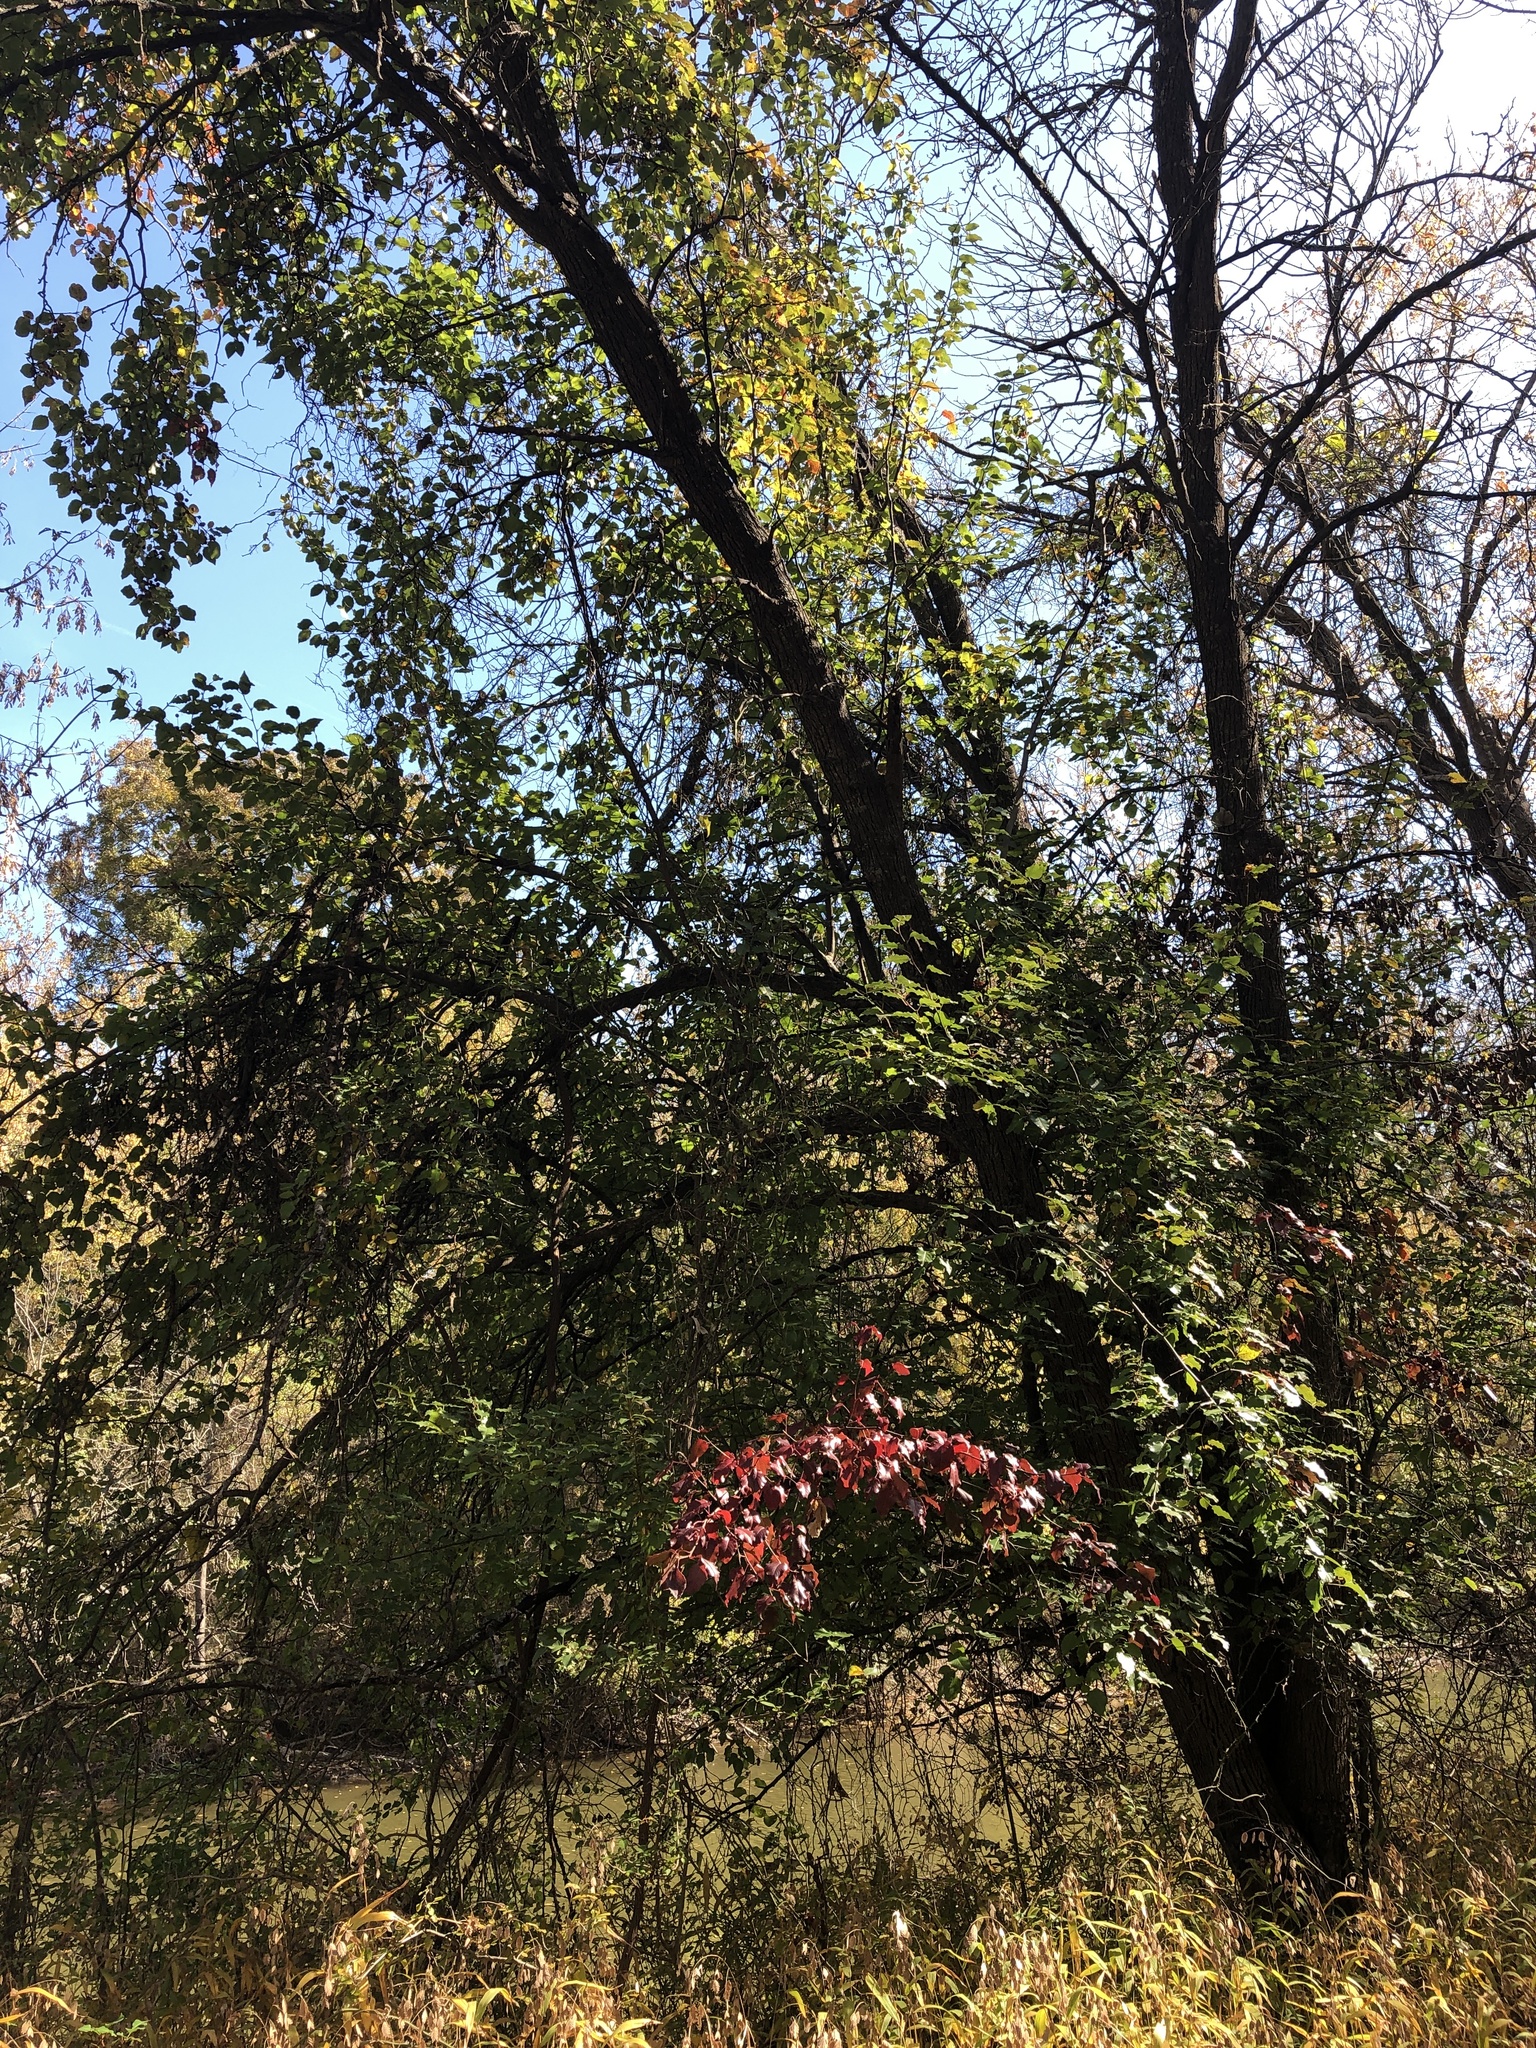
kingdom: Plantae
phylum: Tracheophyta
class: Magnoliopsida
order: Rosales
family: Rosaceae
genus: Pyrus
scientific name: Pyrus calleryana
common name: Callery pear
